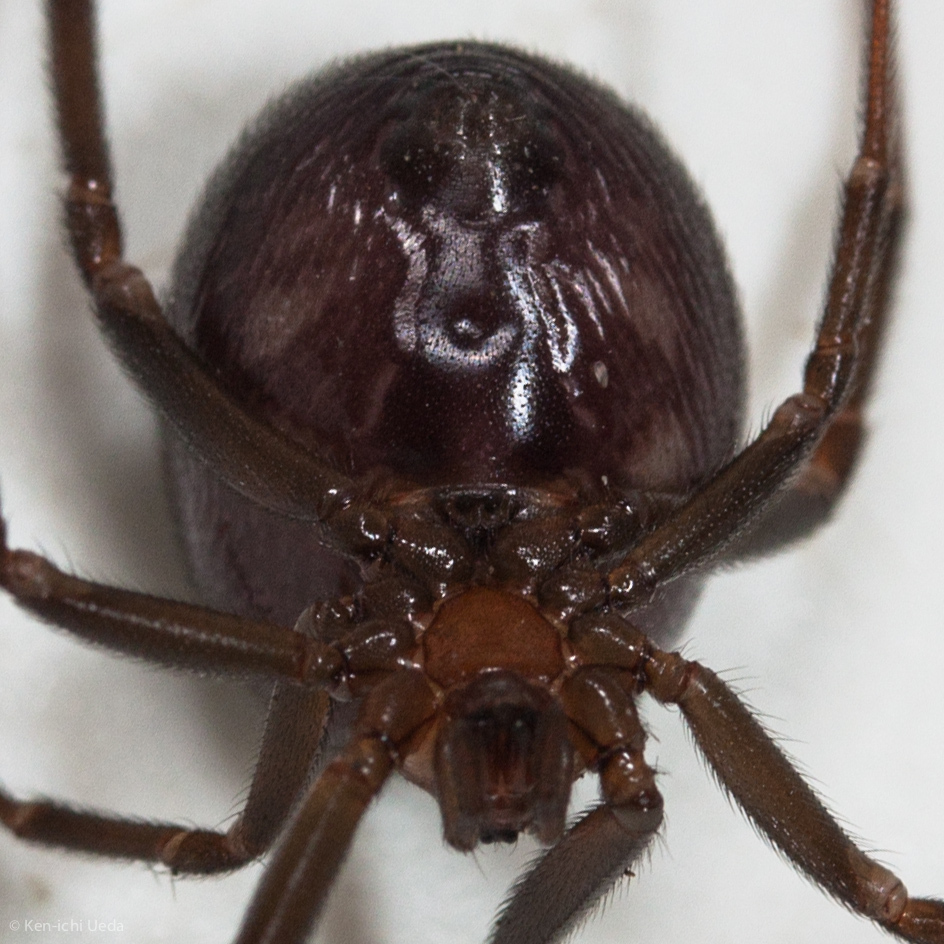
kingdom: Animalia
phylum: Arthropoda
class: Arachnida
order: Araneae
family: Theridiidae
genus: Steatoda
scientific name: Steatoda grossa
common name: False black widow
